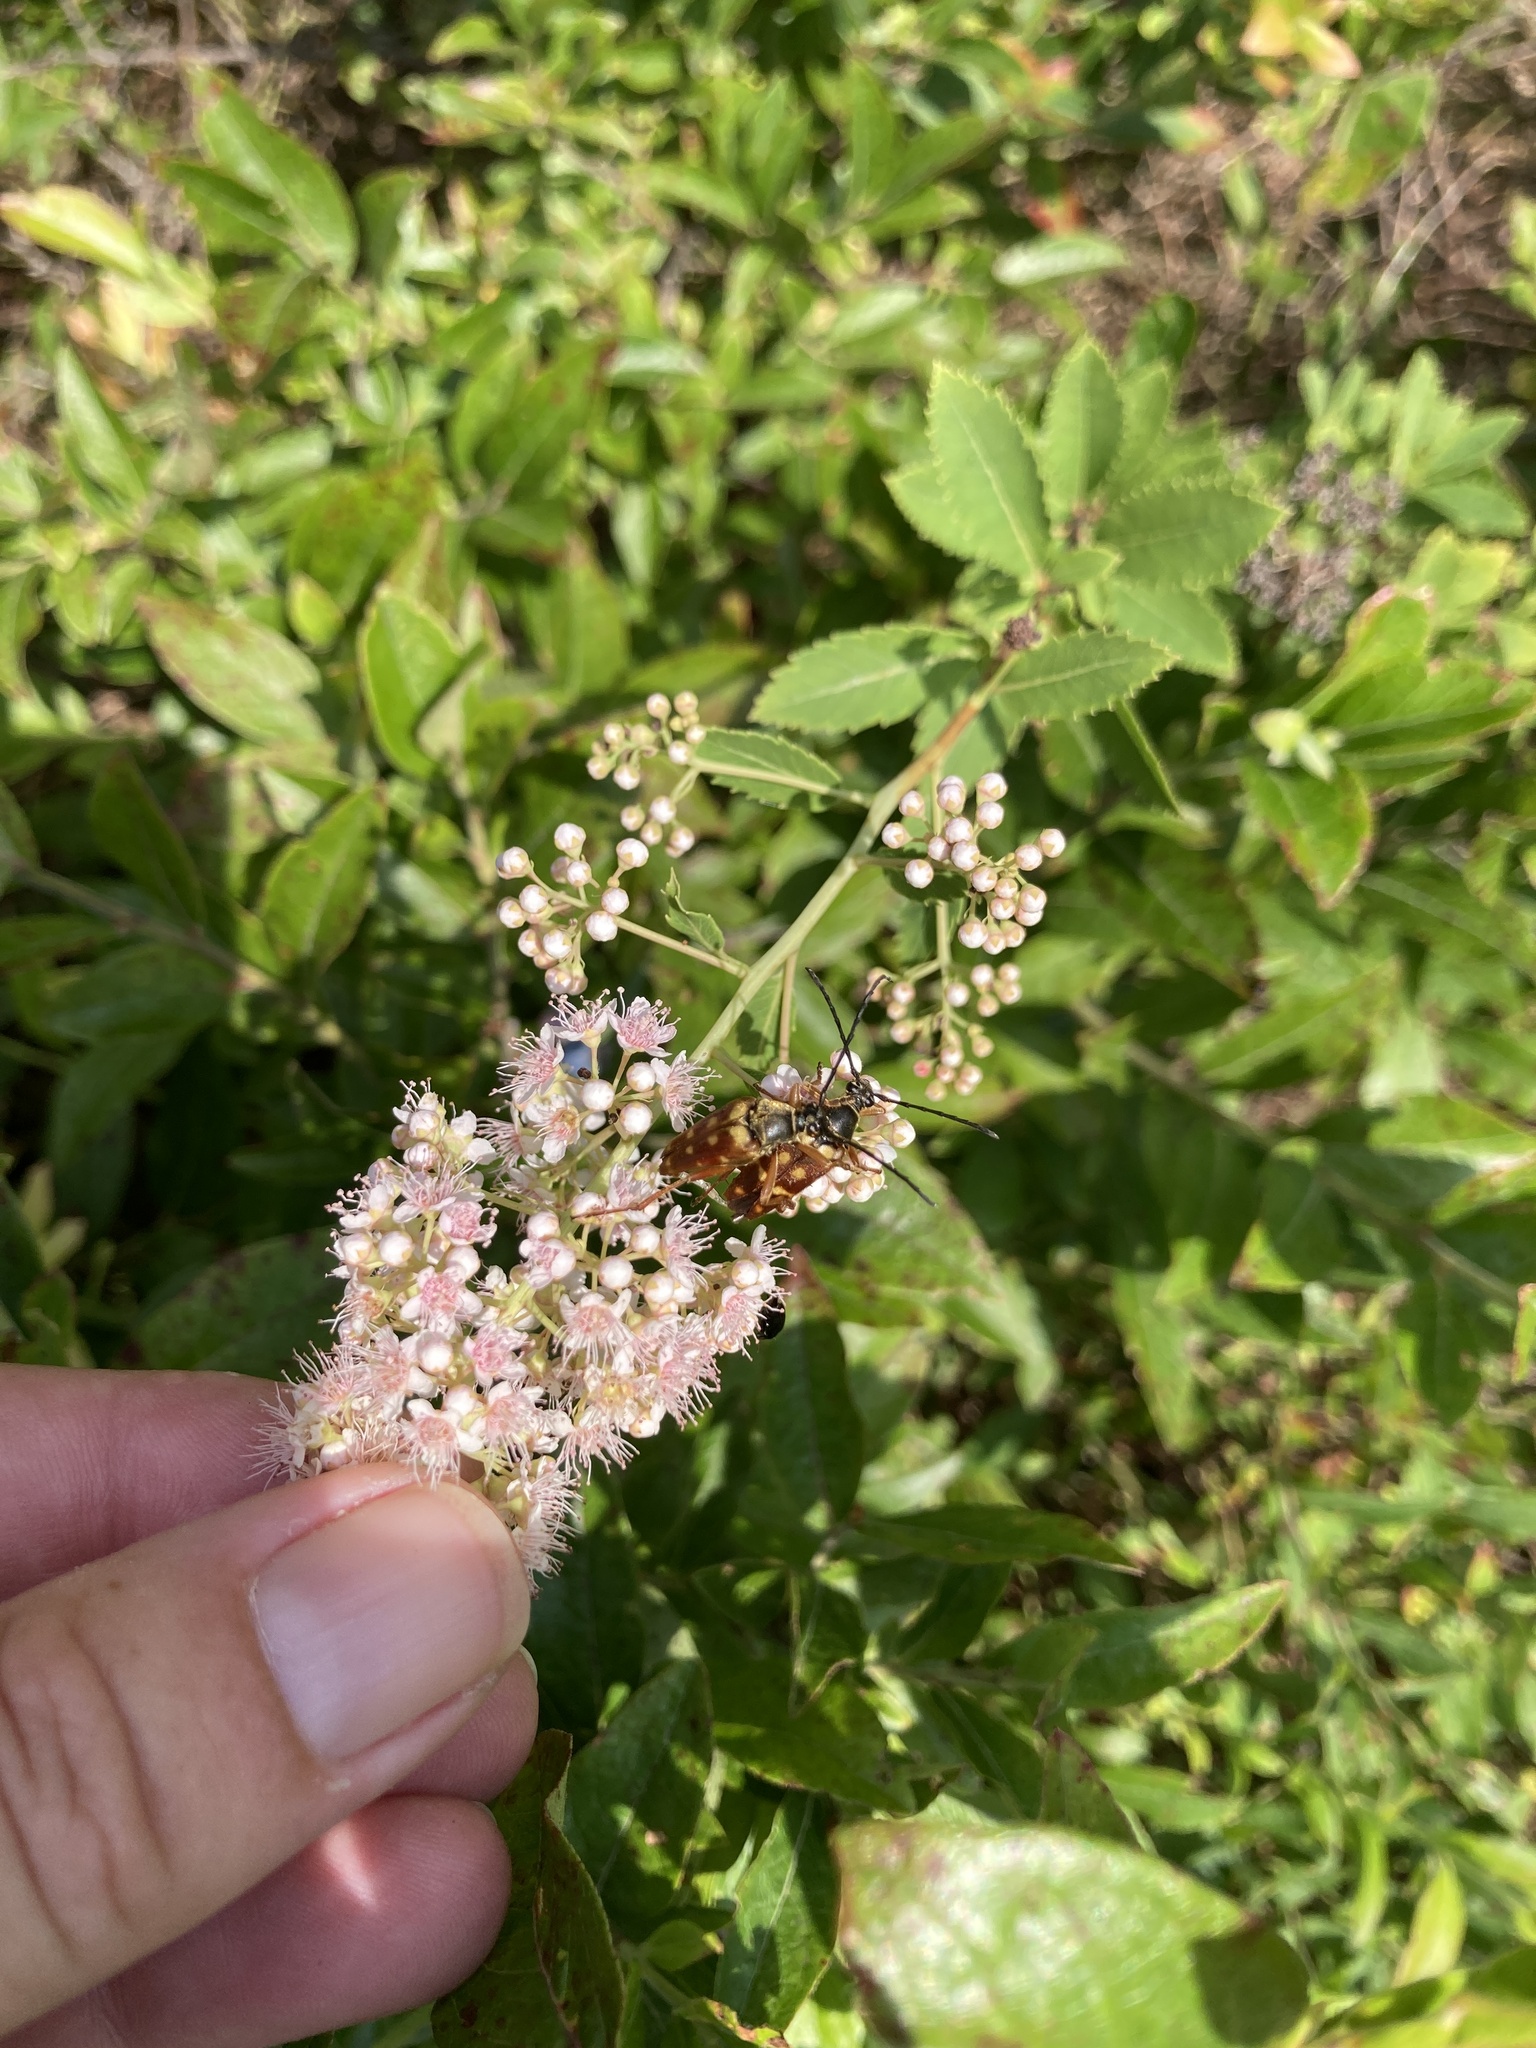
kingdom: Animalia
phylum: Arthropoda
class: Insecta
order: Coleoptera
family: Cerambycidae
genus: Typocerus
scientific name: Typocerus velutinus
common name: Banded longhorn beetle
